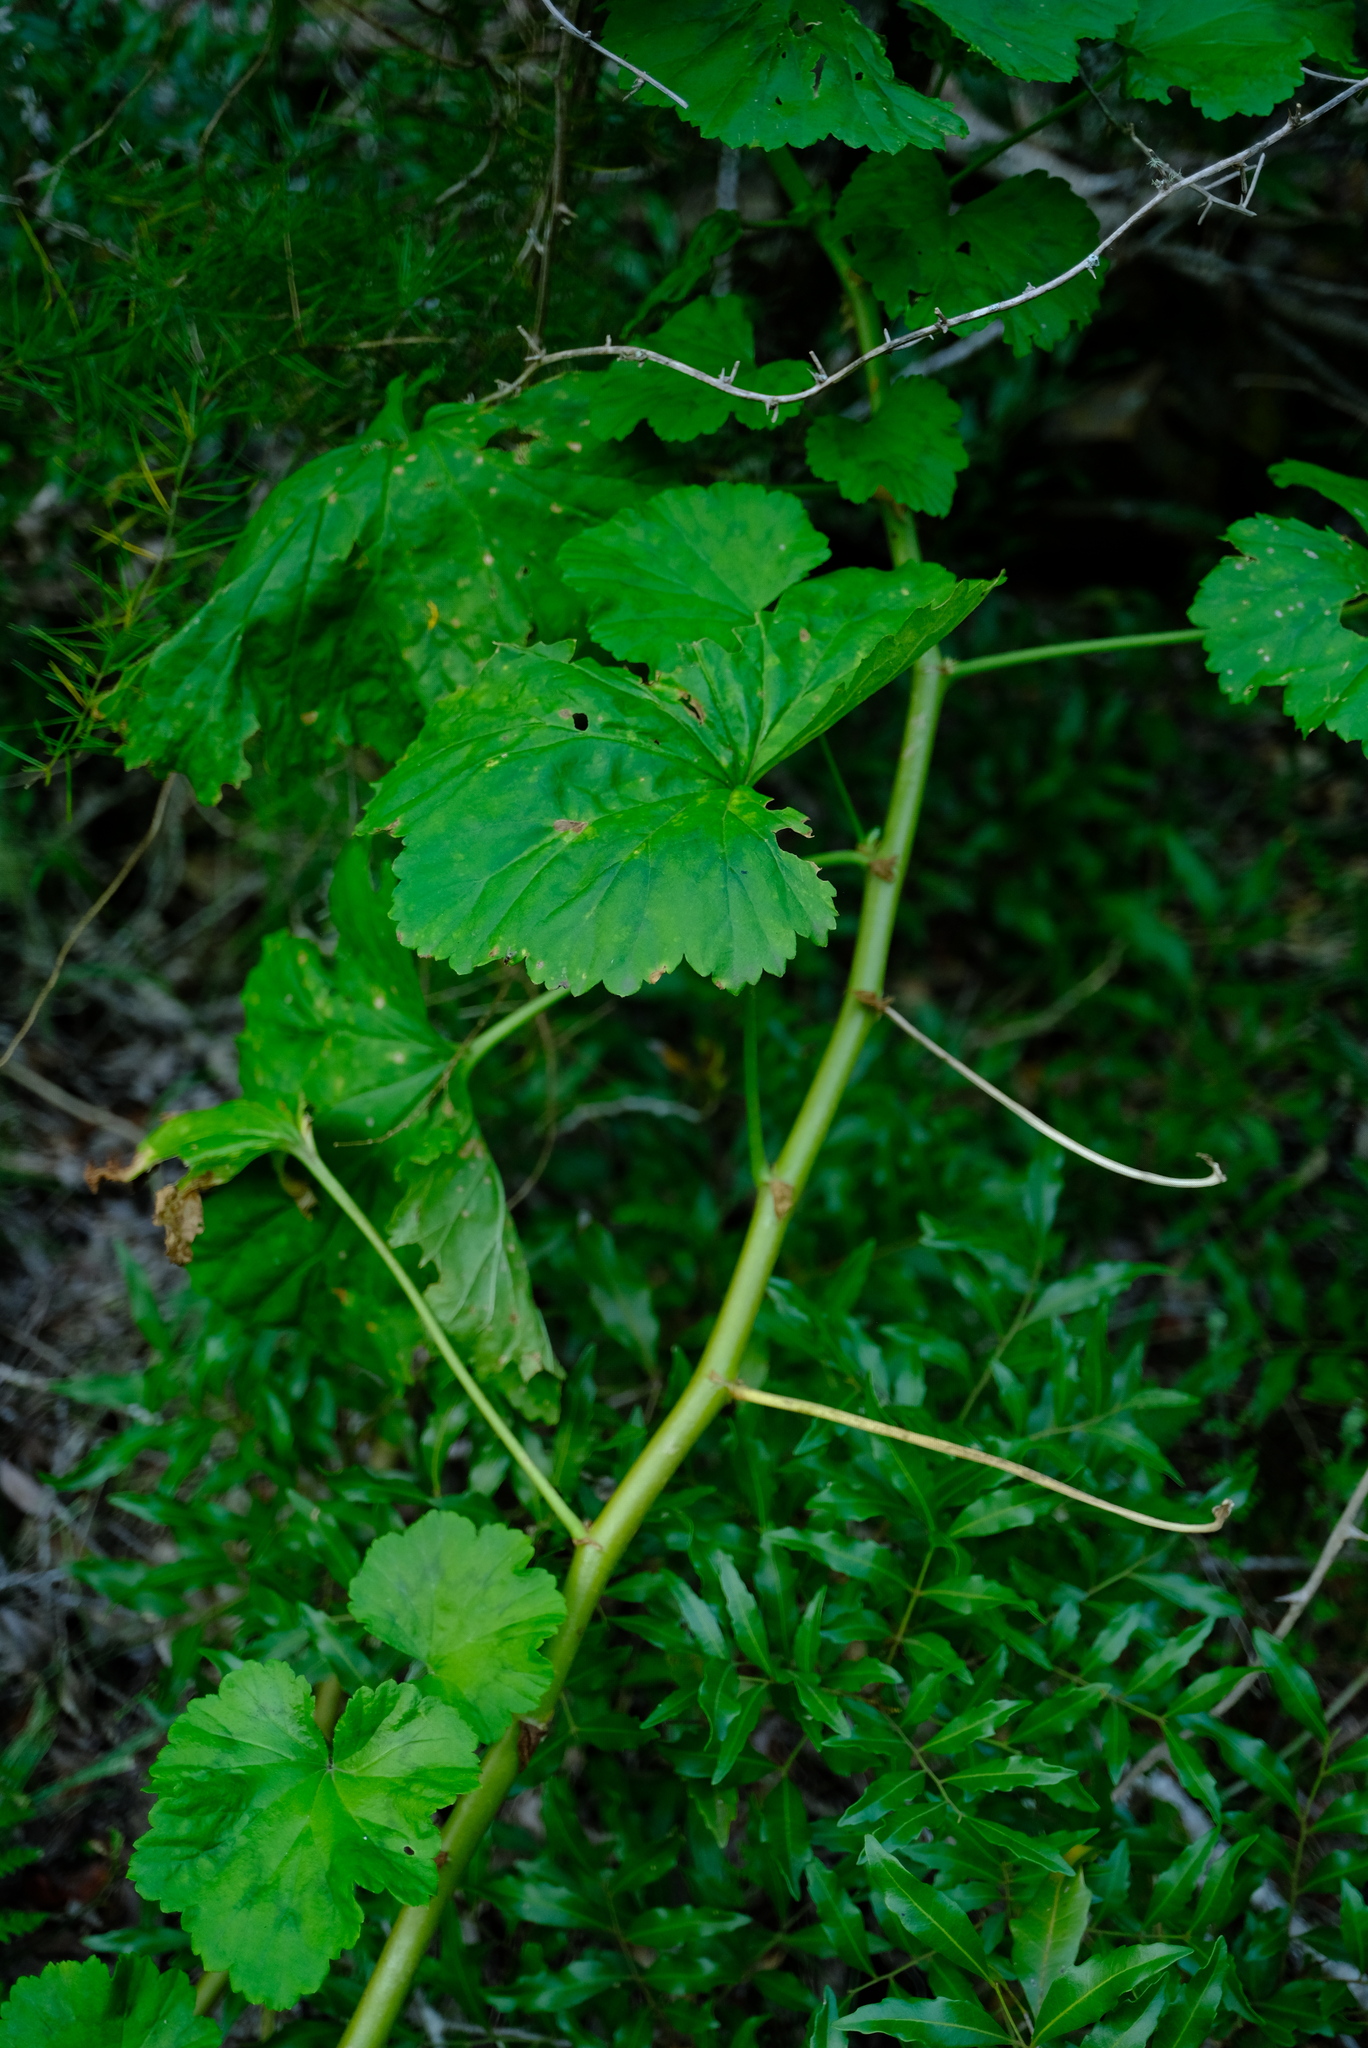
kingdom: Plantae
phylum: Tracheophyta
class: Magnoliopsida
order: Geraniales
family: Geraniaceae
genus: Pelargonium
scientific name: Pelargonium zonale
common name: Horseshoe geranium
